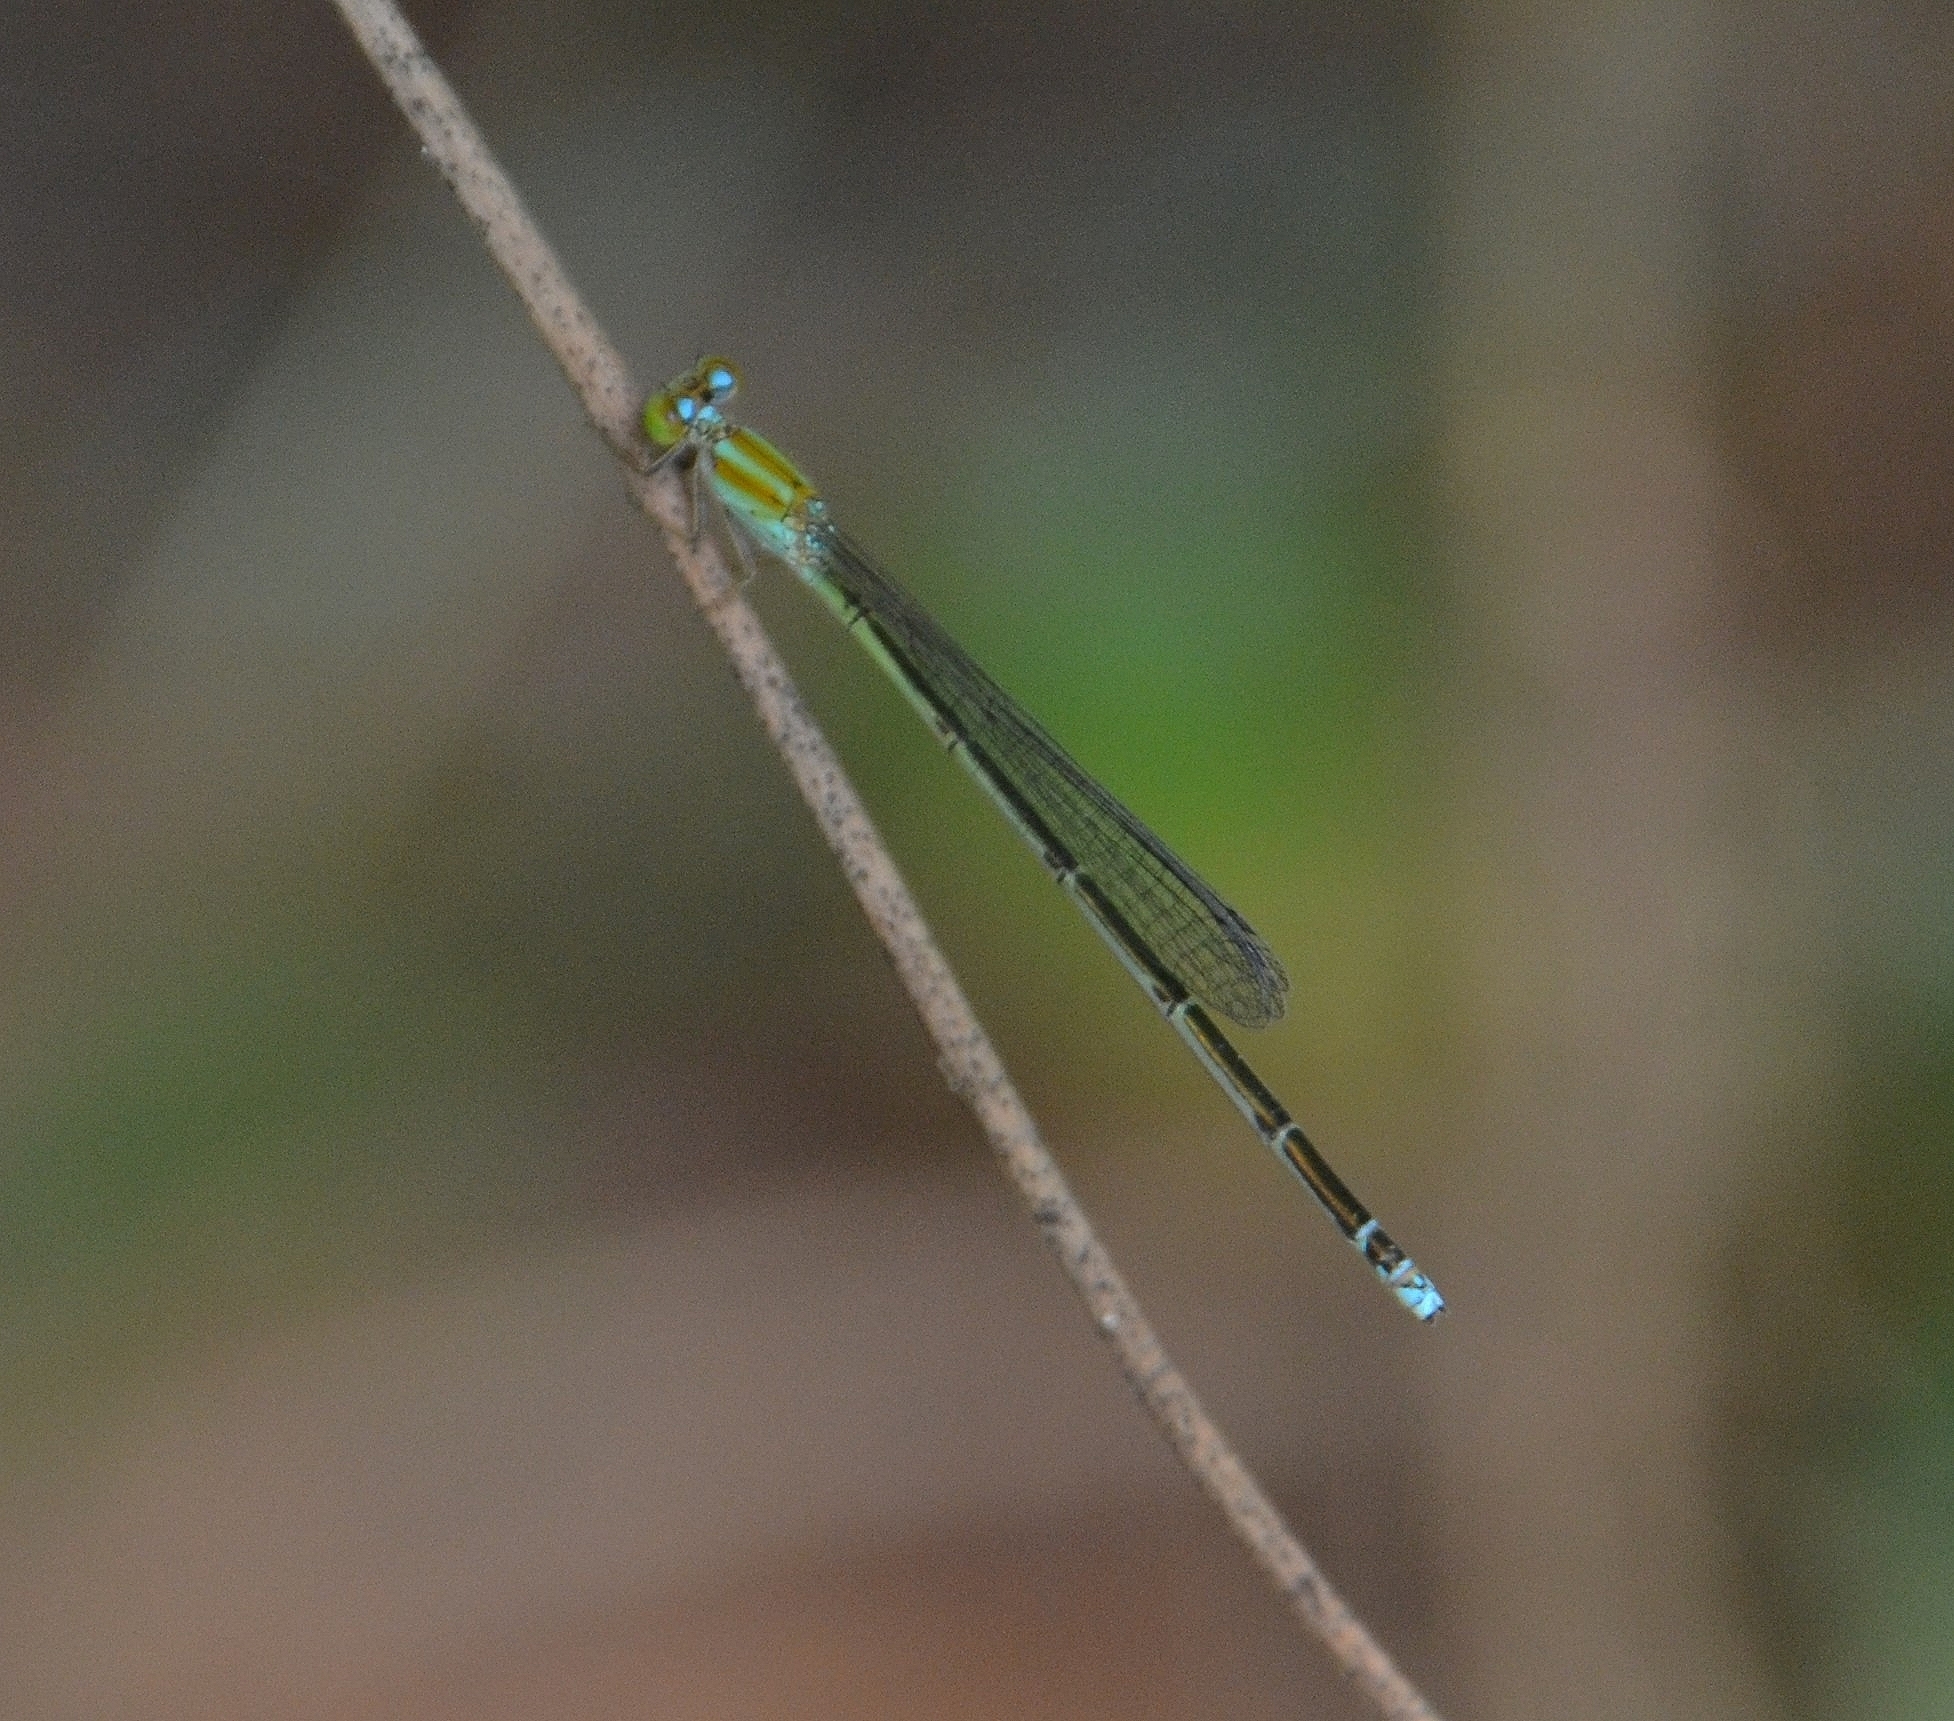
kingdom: Animalia
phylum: Arthropoda
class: Insecta
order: Odonata
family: Coenagrionidae
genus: Pseudagrion
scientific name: Pseudagrion microcephalum
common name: Blue riverdamsel
